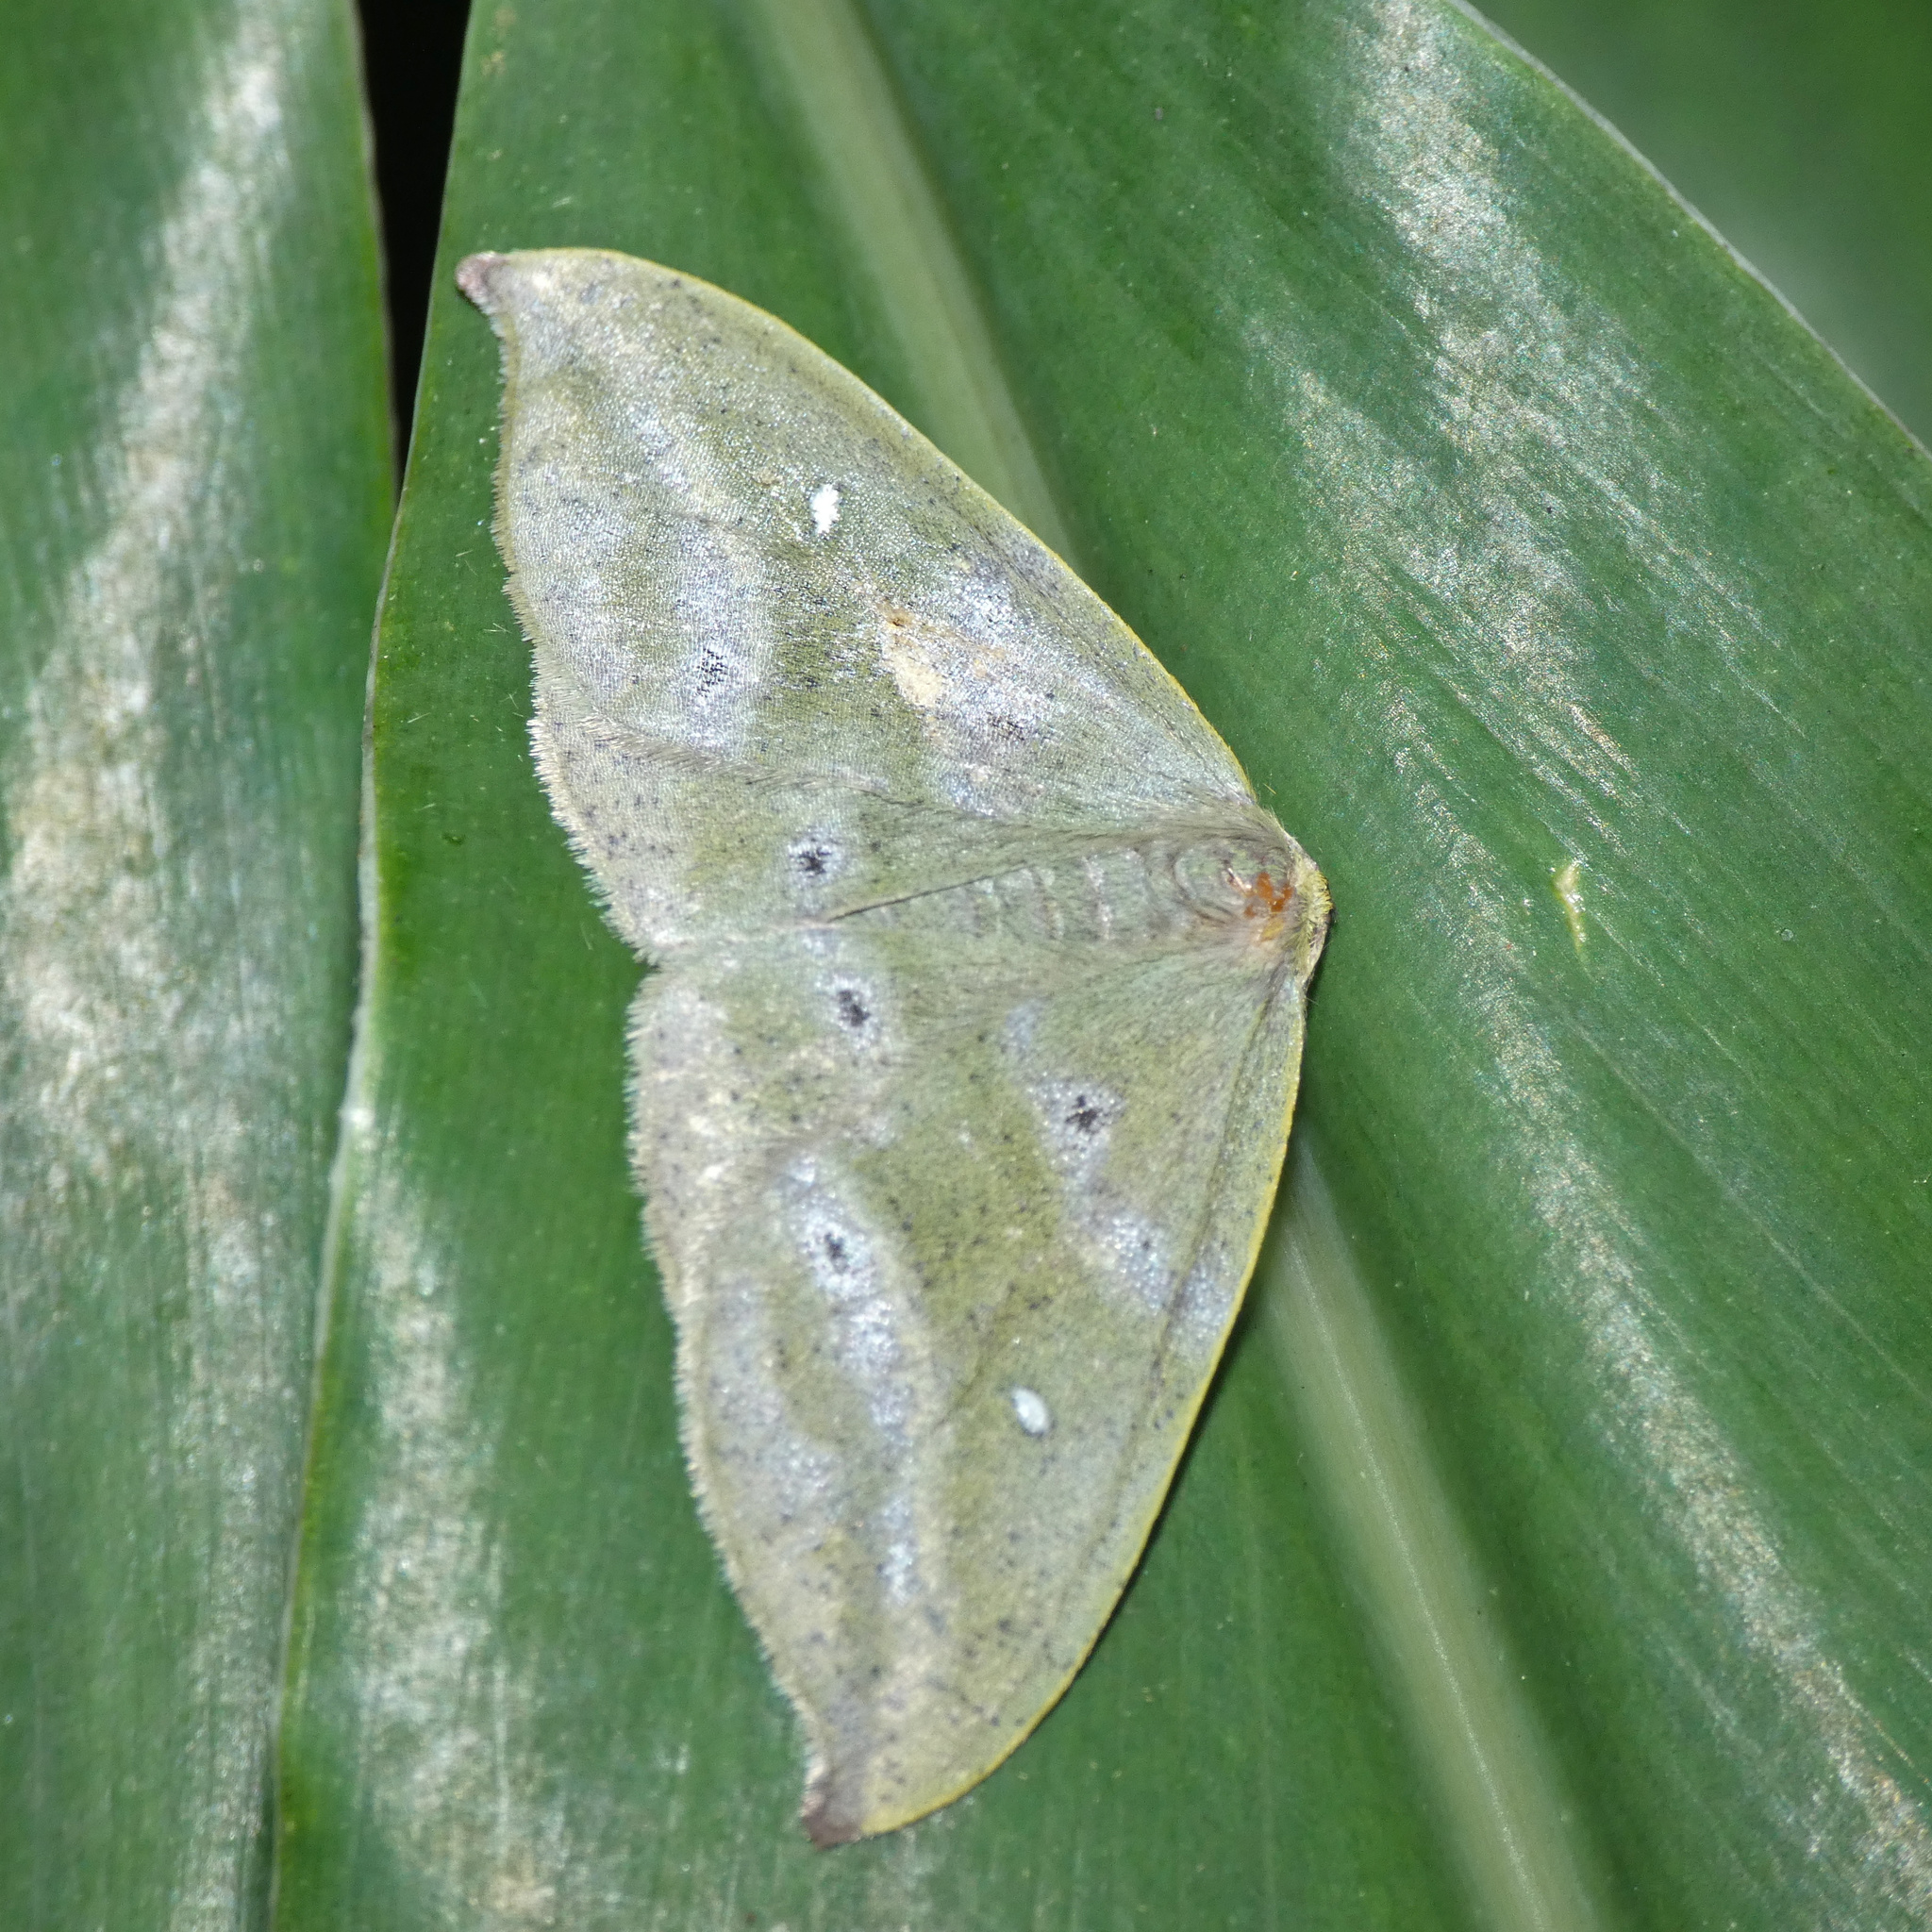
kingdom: Animalia
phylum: Arthropoda
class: Insecta
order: Lepidoptera
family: Geometridae
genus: Hypochrosis
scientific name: Hypochrosis meridionalis
